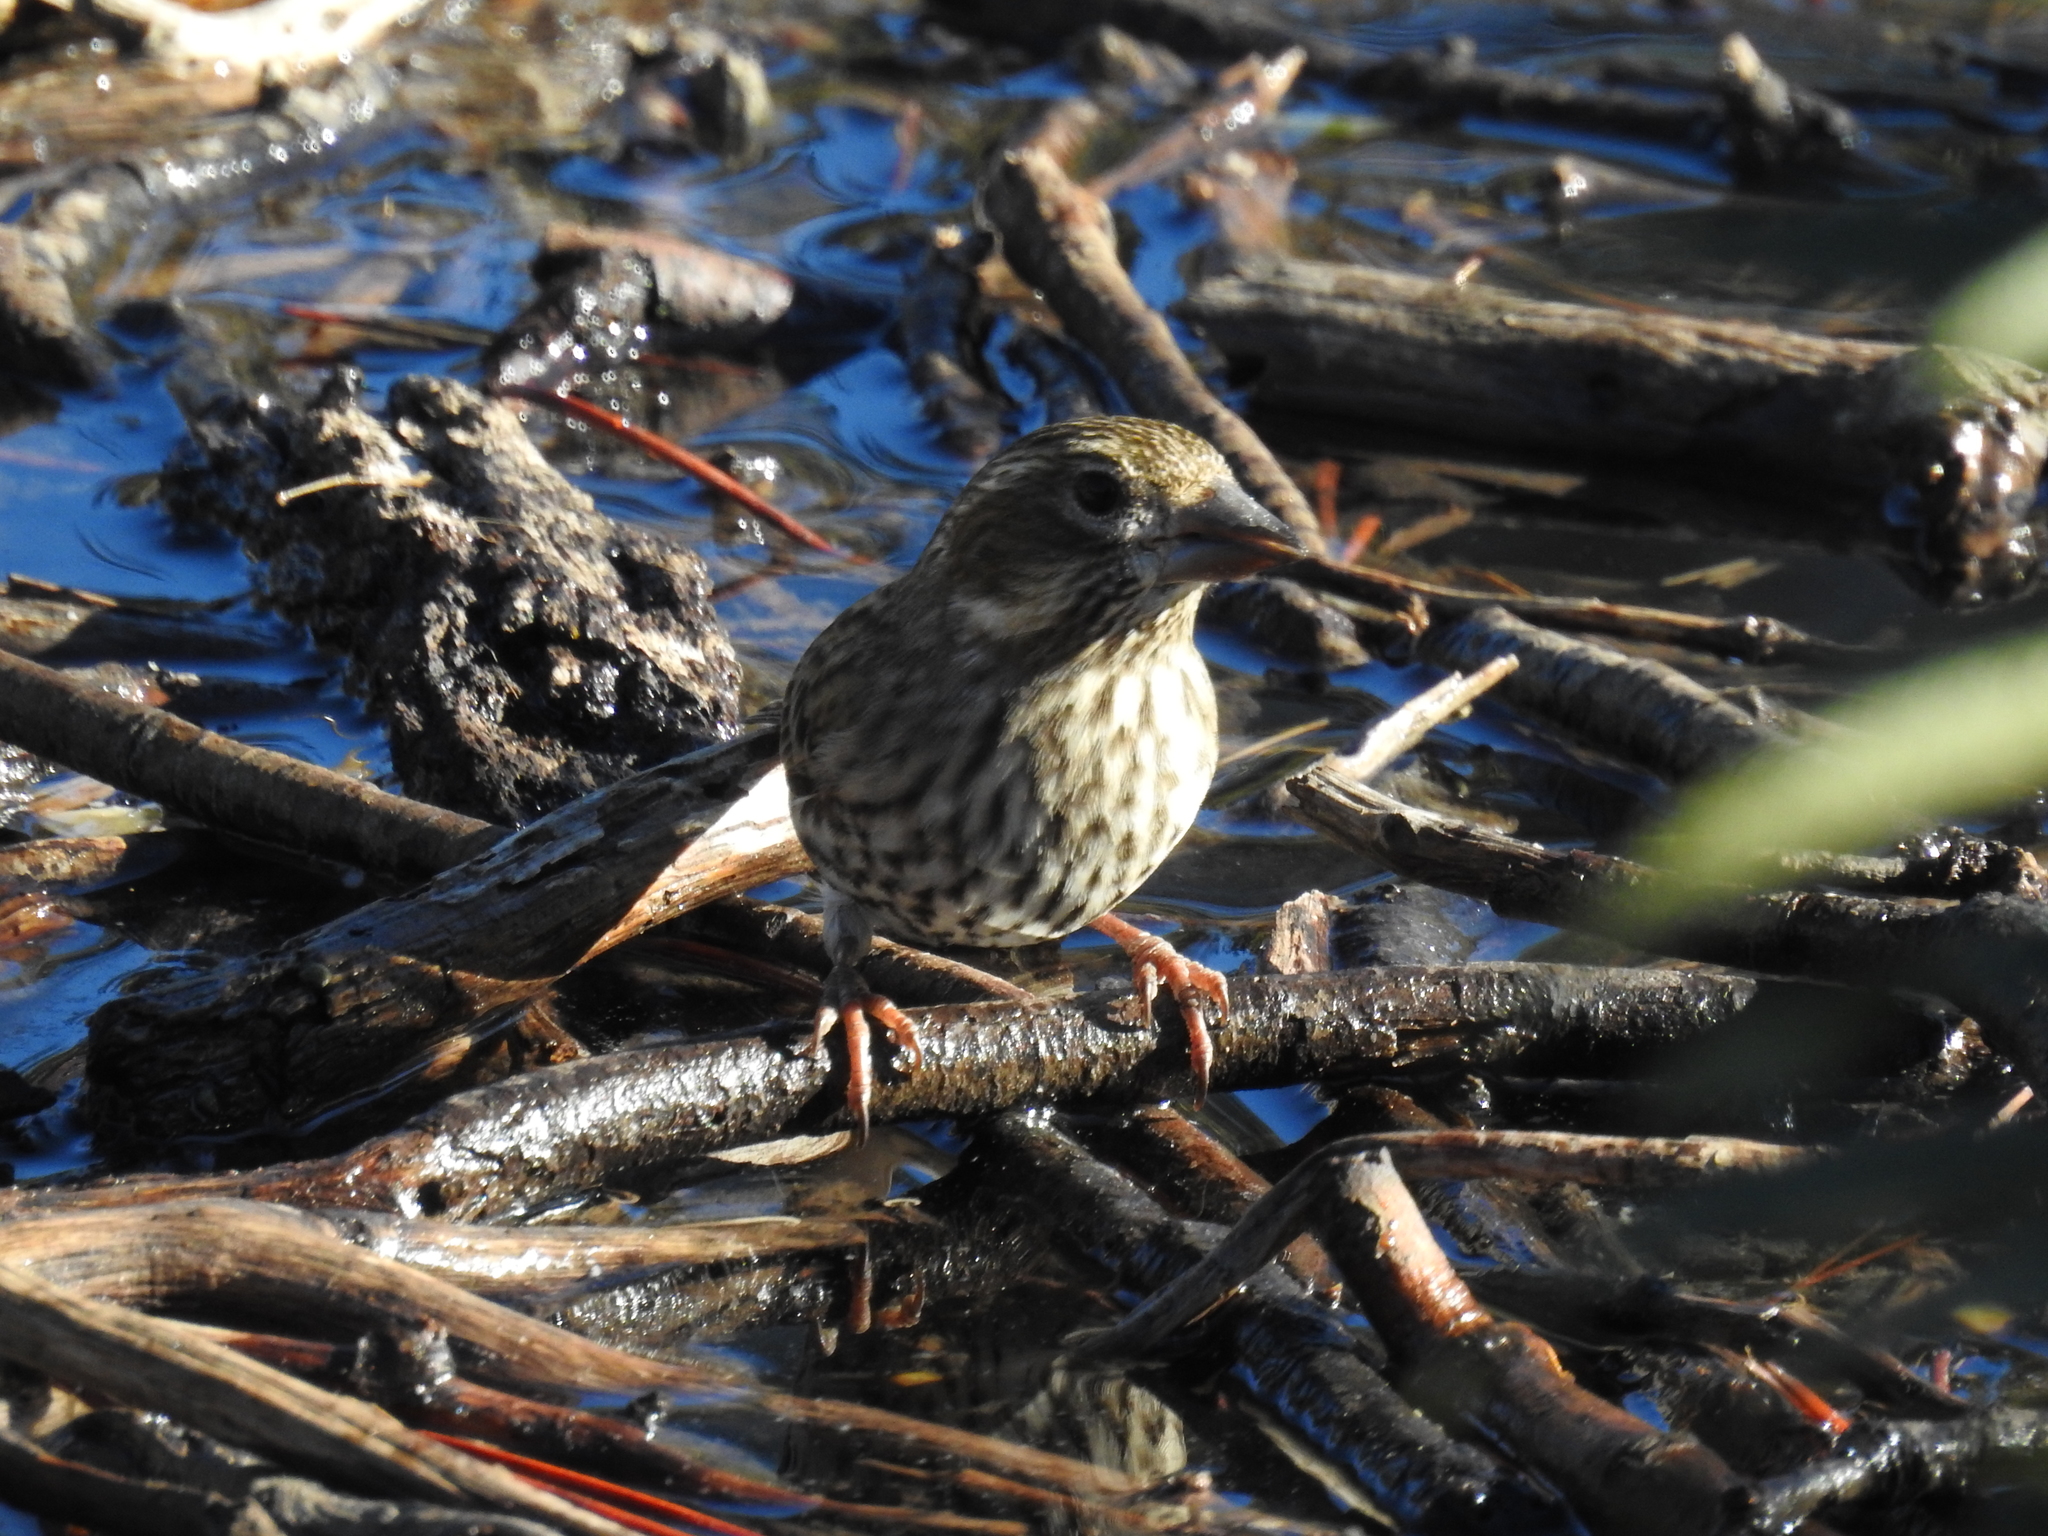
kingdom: Animalia
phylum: Chordata
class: Aves
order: Passeriformes
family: Fringillidae
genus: Haemorhous
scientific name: Haemorhous cassinii
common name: Cassin's finch
